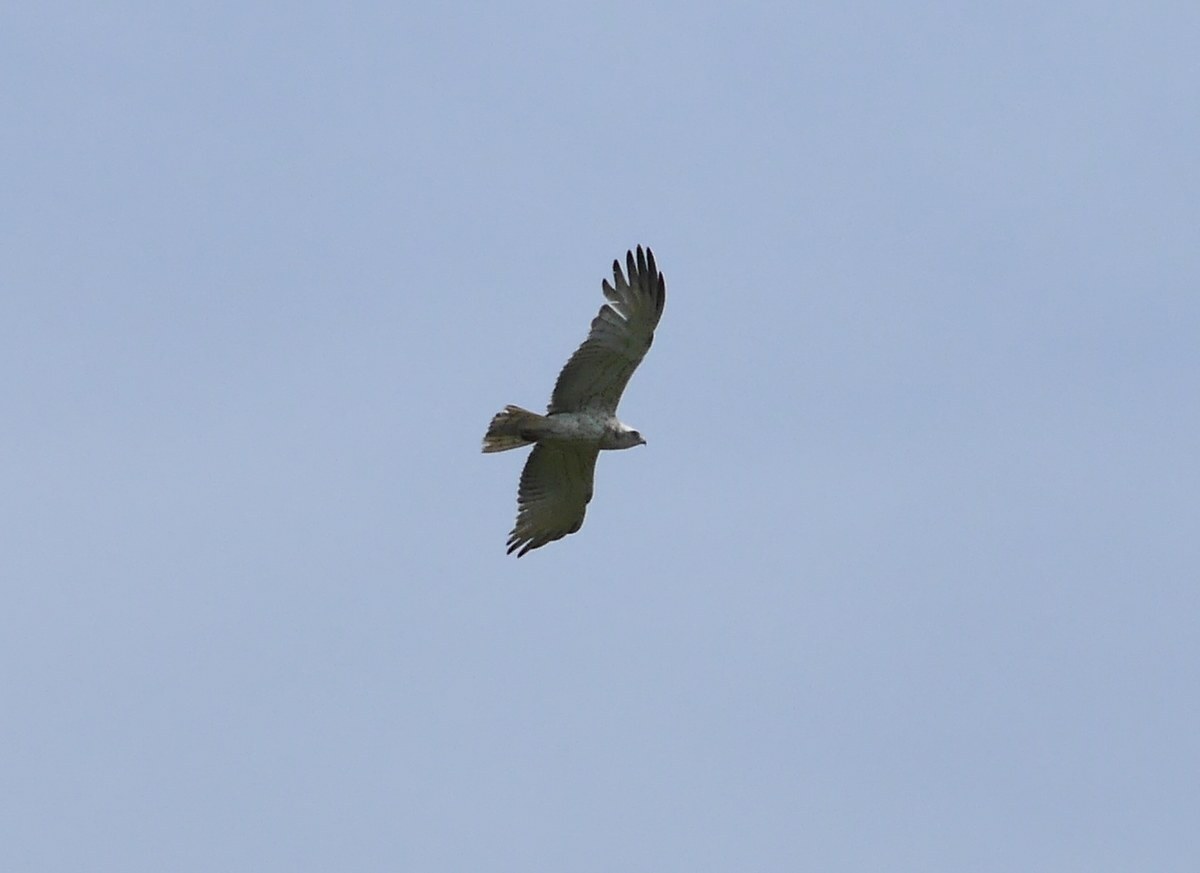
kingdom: Animalia
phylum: Chordata
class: Aves
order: Accipitriformes
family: Accipitridae
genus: Circaetus
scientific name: Circaetus gallicus
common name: Short-toed snake eagle
